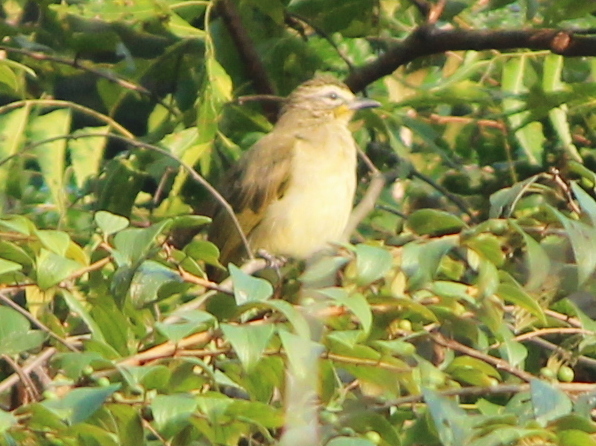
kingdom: Animalia
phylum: Chordata
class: Aves
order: Passeriformes
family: Pycnonotidae
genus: Pycnonotus
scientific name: Pycnonotus luteolus
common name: White-browed bulbul
